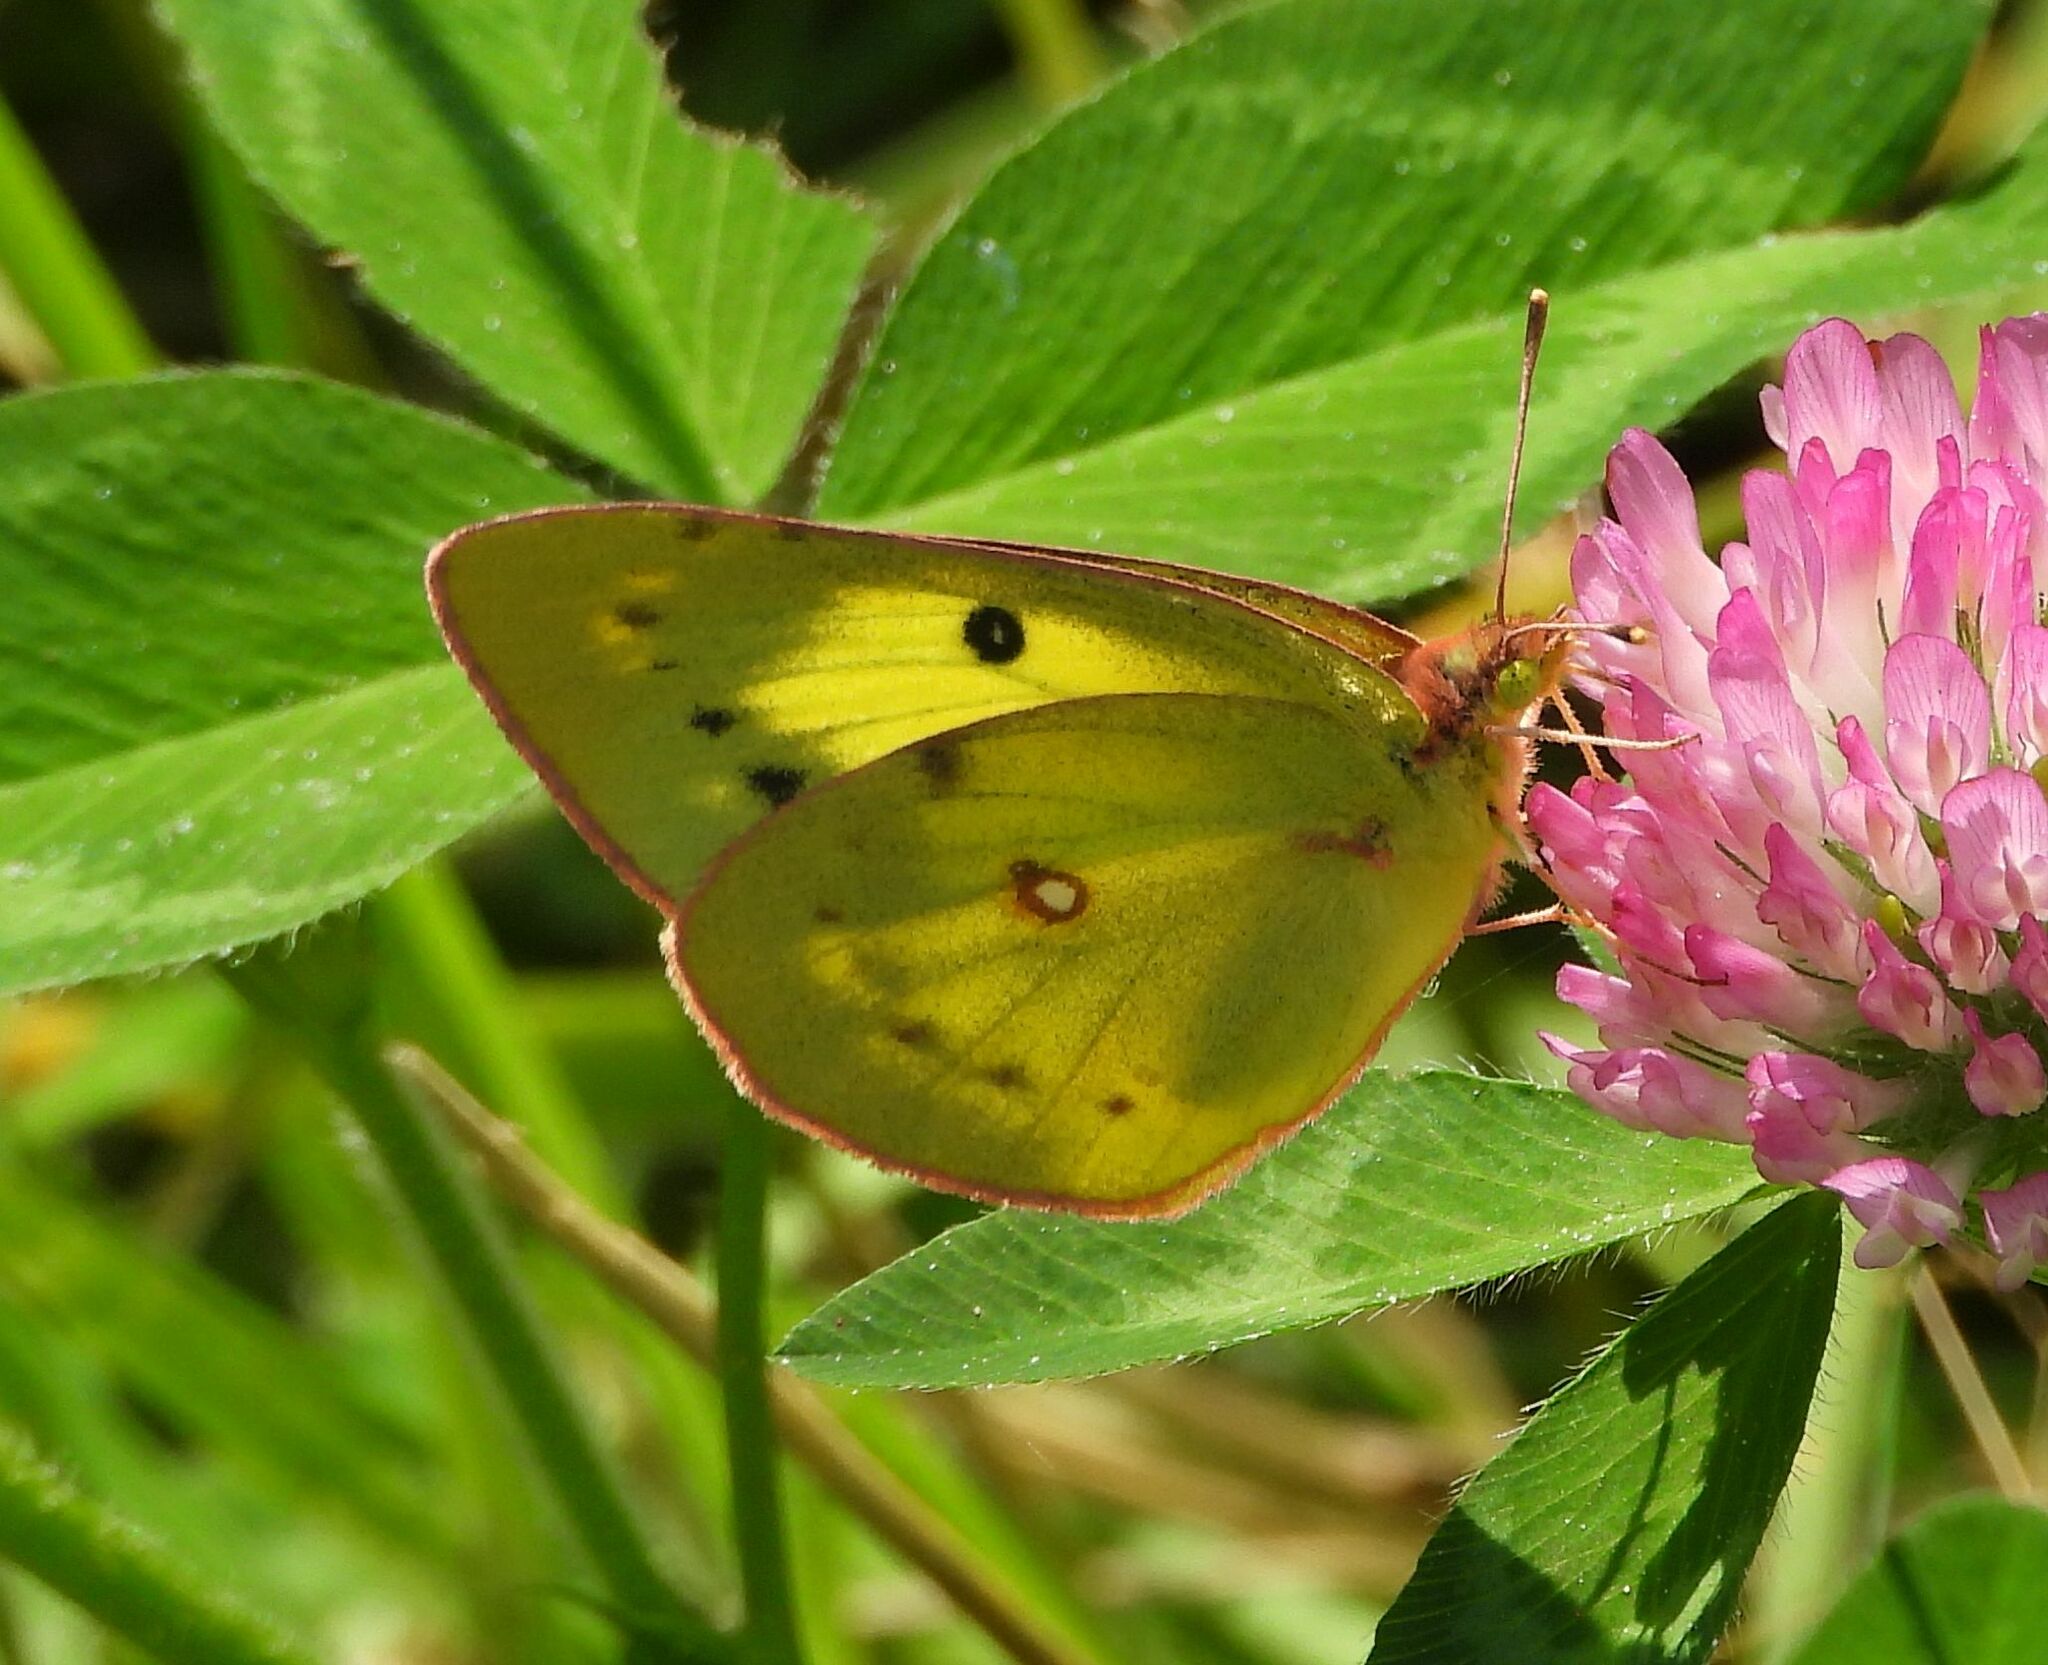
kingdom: Animalia
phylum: Arthropoda
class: Insecta
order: Lepidoptera
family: Pieridae
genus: Colias
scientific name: Colias philodice
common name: Clouded sulphur
